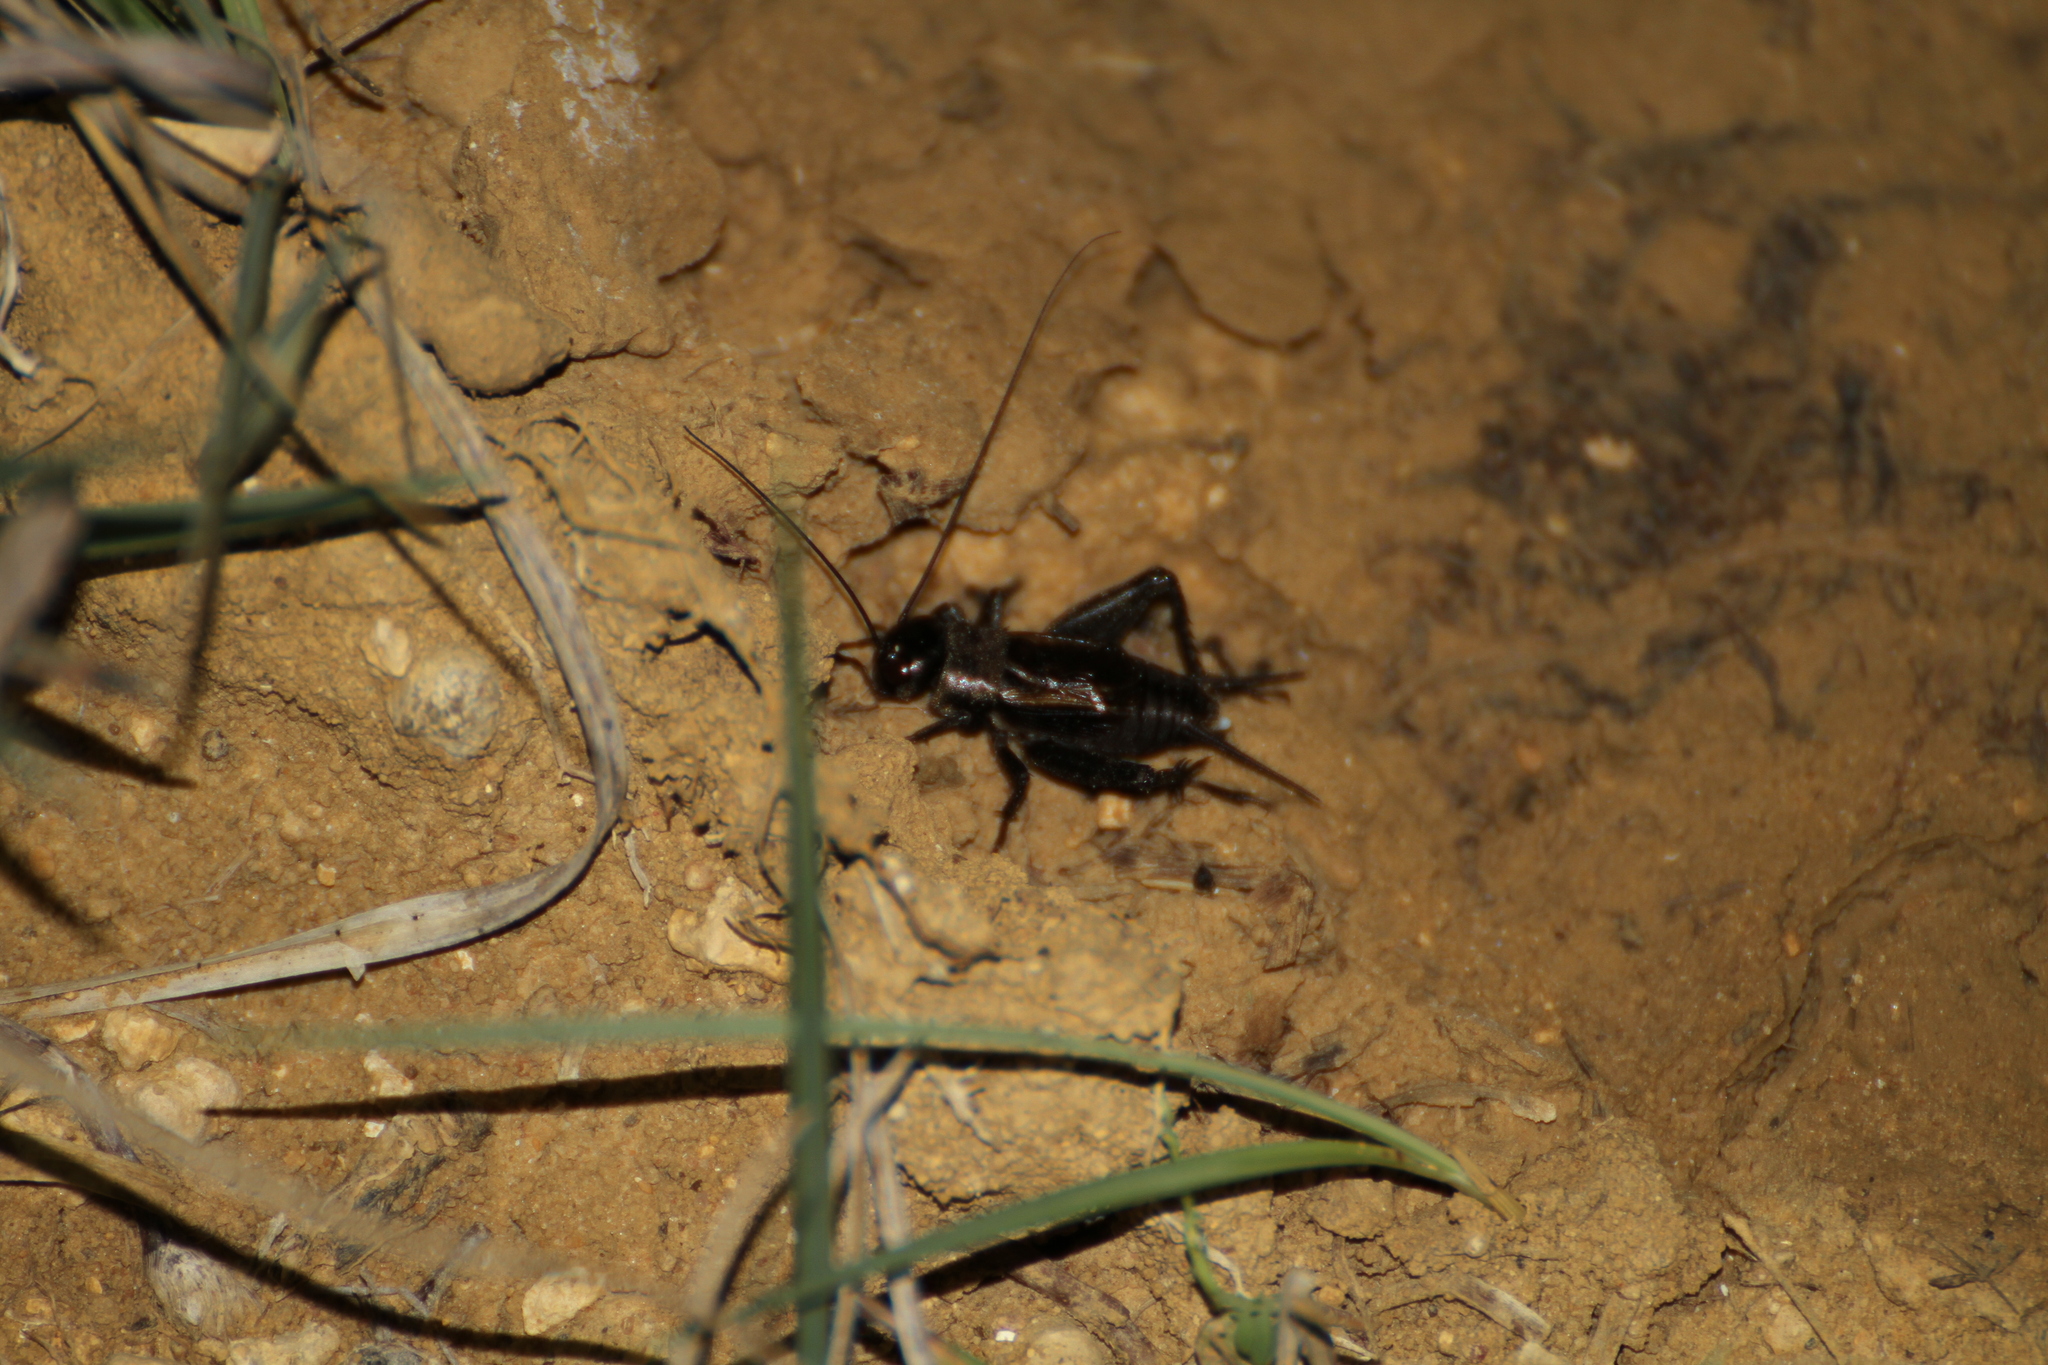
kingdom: Animalia
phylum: Arthropoda
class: Insecta
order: Orthoptera
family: Gryllidae
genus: Melanogryllus
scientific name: Melanogryllus desertus
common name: Desert cricket
